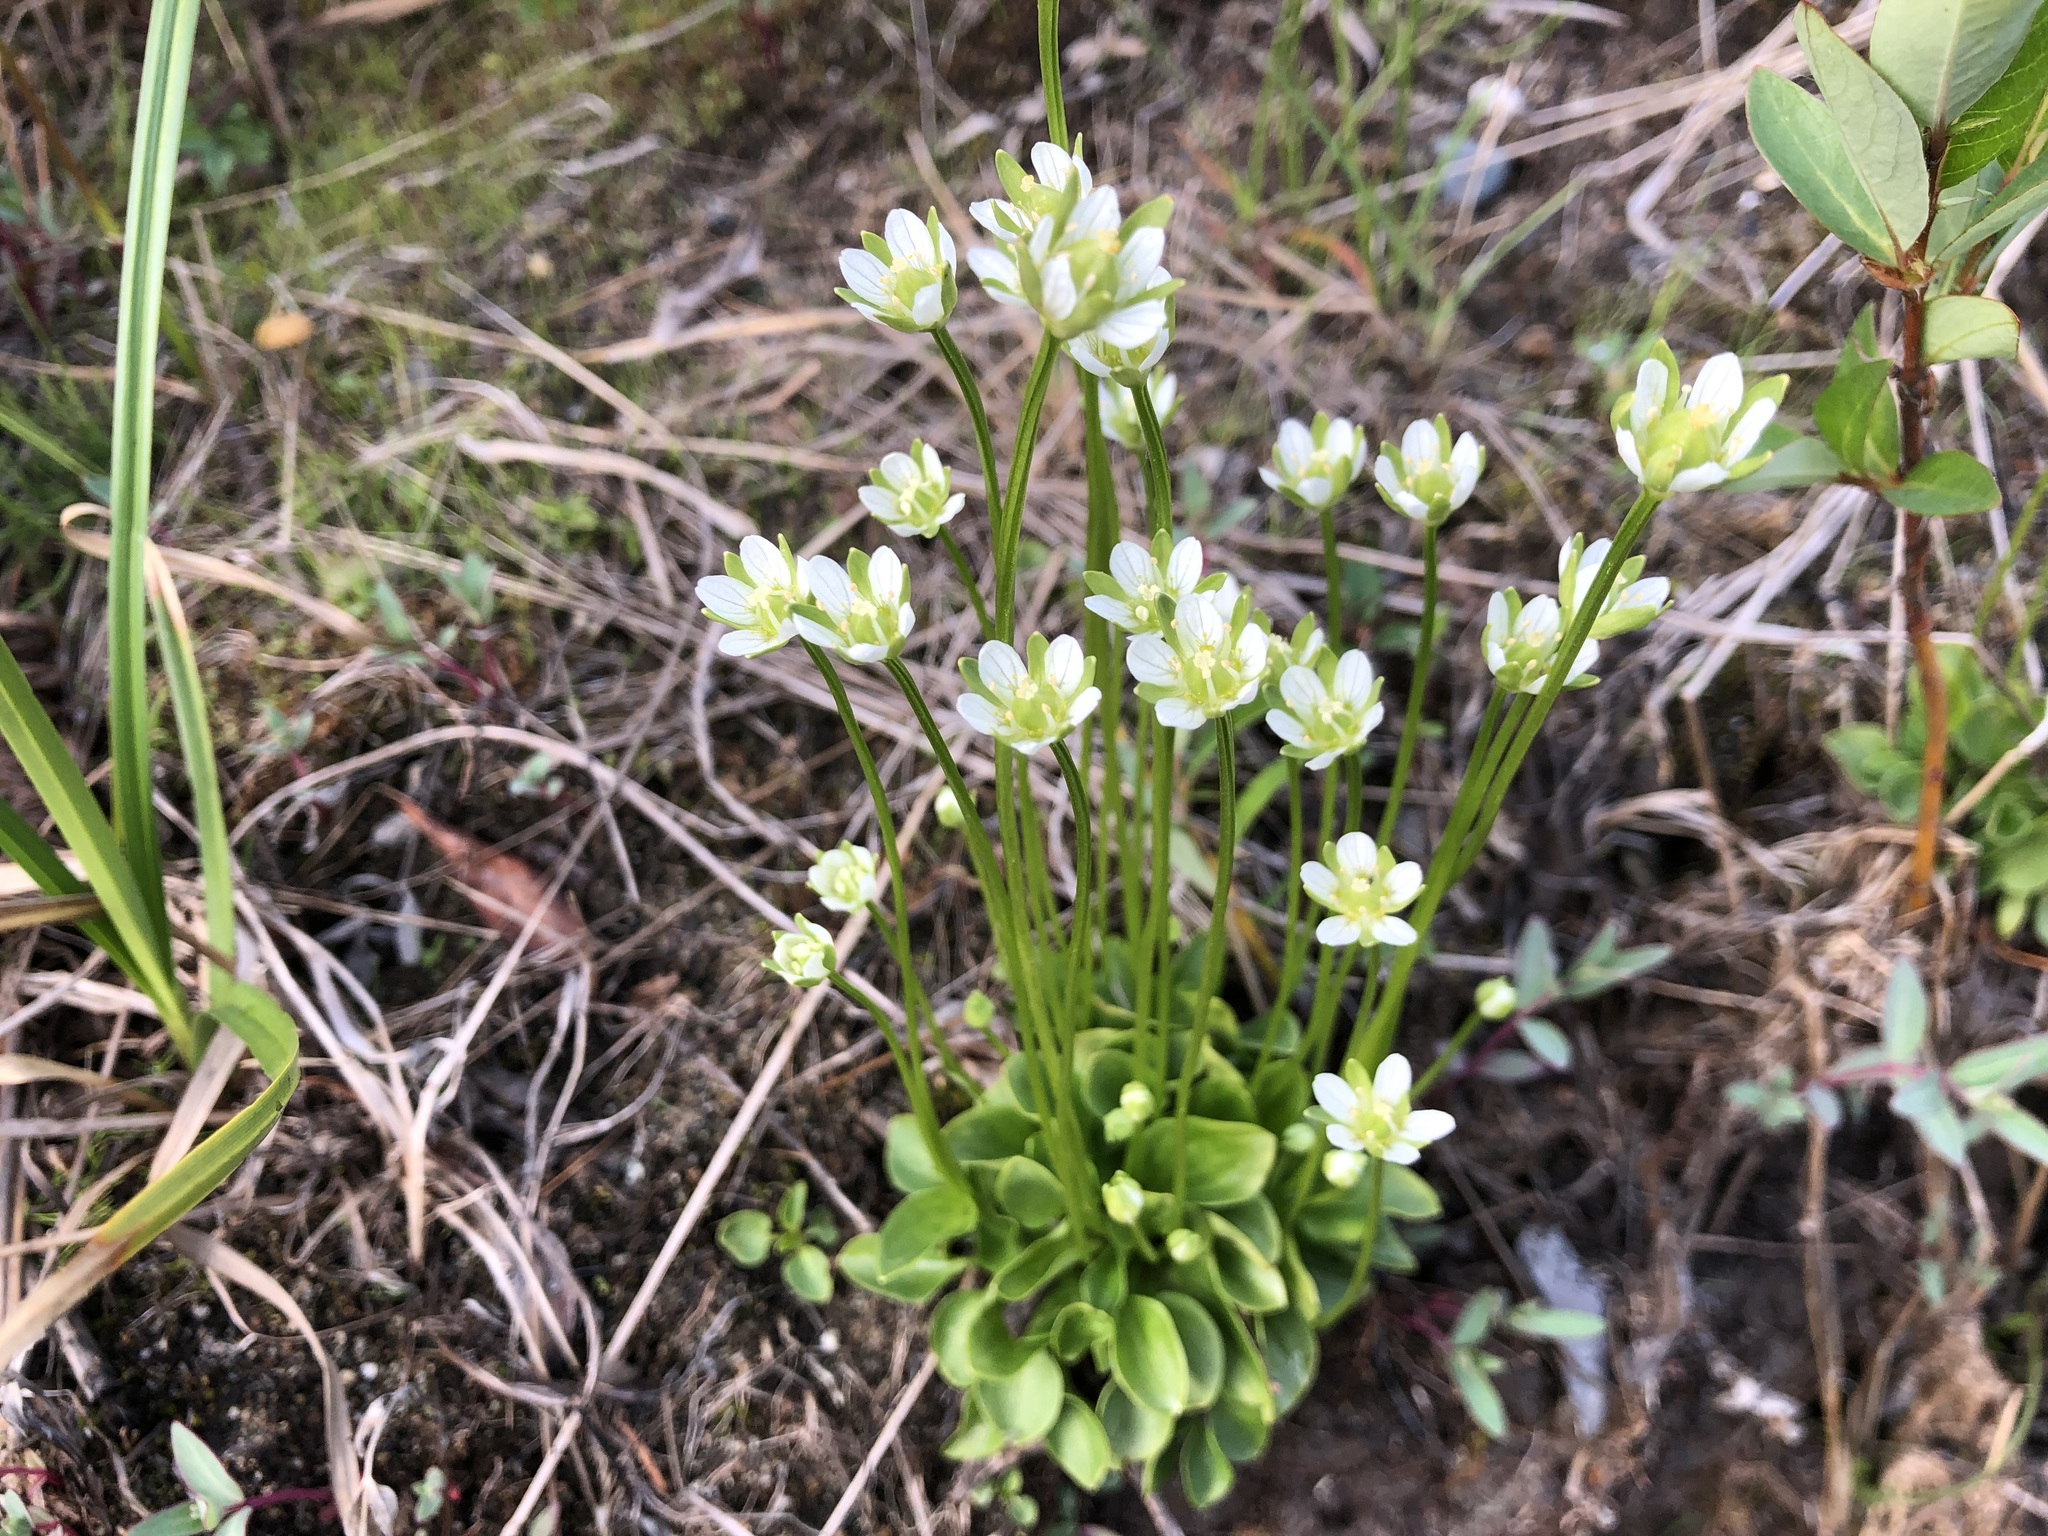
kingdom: Plantae
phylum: Tracheophyta
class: Magnoliopsida
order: Celastrales
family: Parnassiaceae
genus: Parnassia
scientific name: Parnassia kotzebuei
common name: Kotzebue's grass-of-parnassus
